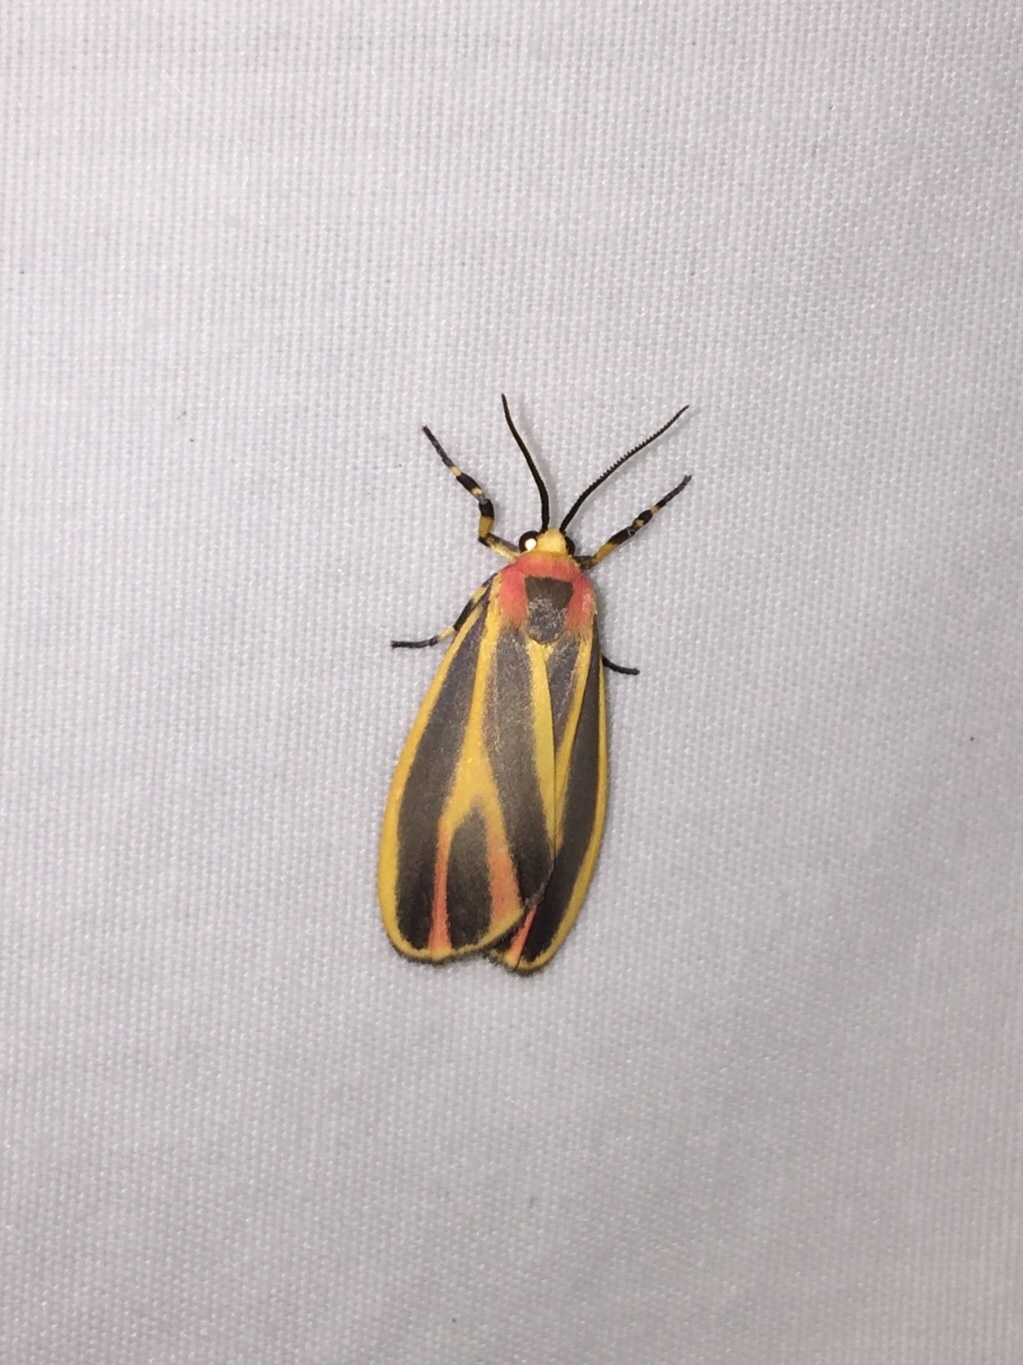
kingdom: Animalia
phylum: Arthropoda
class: Insecta
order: Lepidoptera
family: Erebidae
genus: Hypoprepia
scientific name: Hypoprepia fucosa
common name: Painted lichen moth
